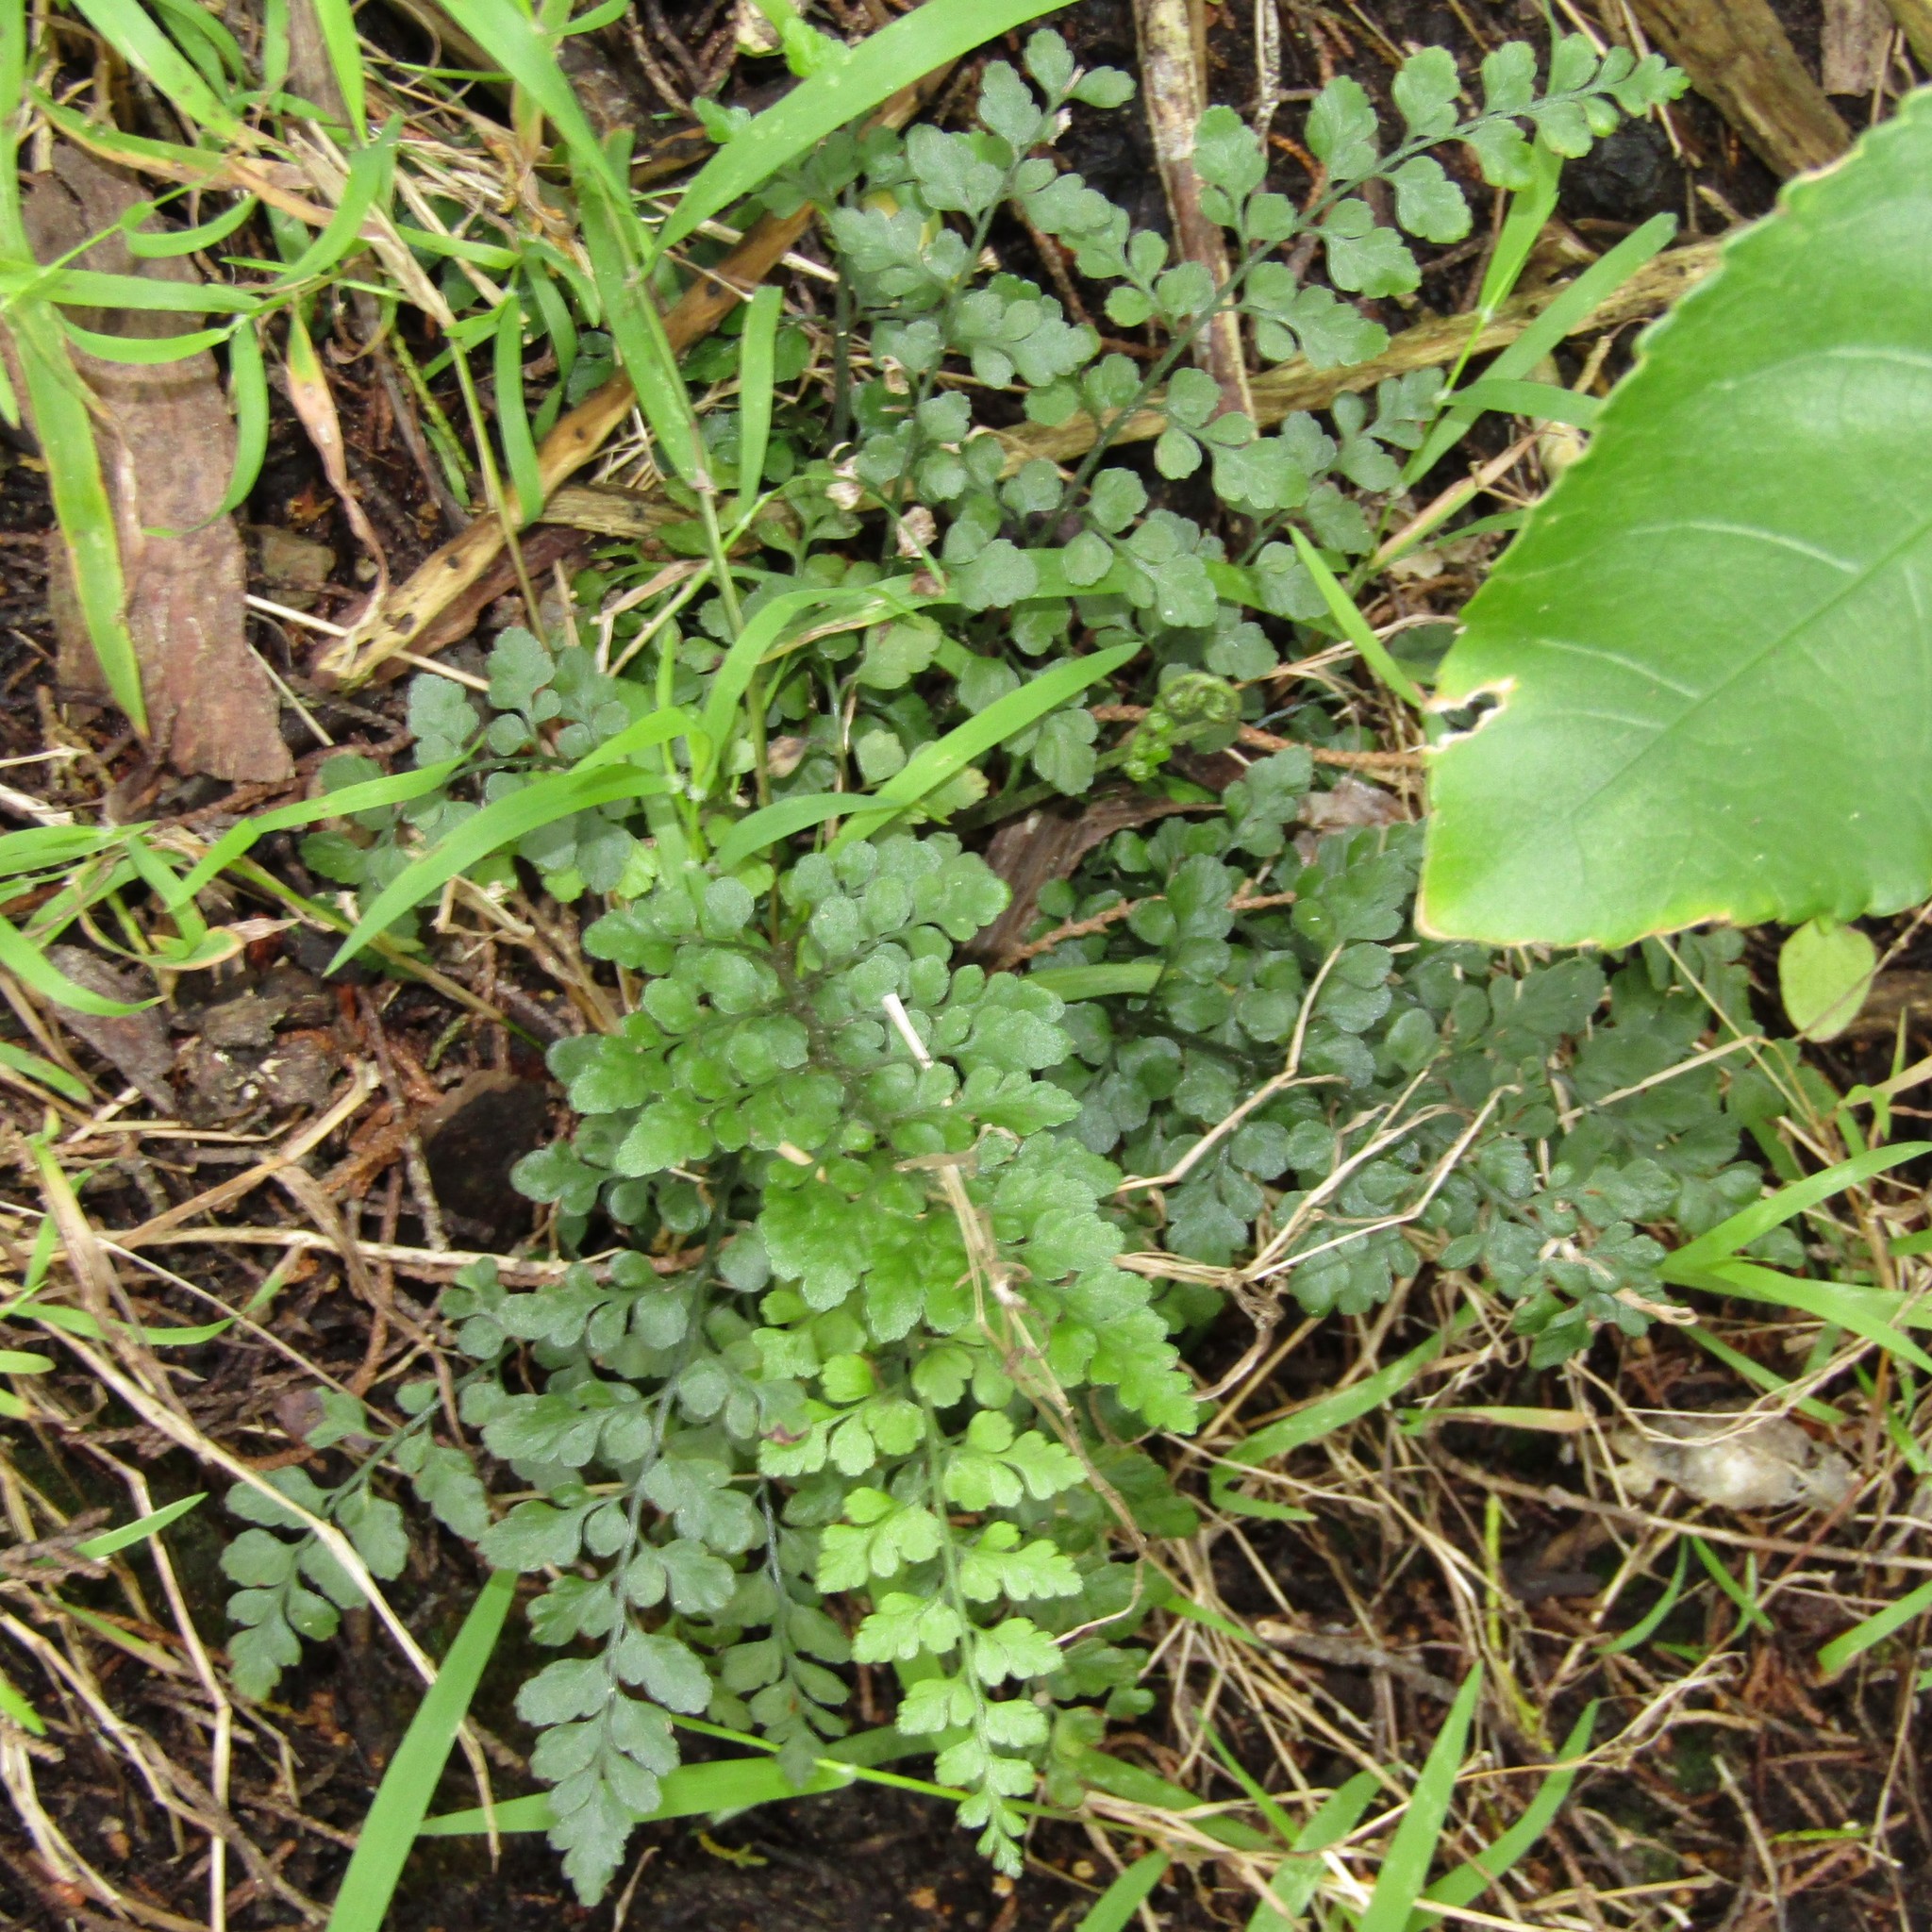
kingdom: Plantae
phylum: Tracheophyta
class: Polypodiopsida
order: Polypodiales
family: Aspleniaceae
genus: Asplenium
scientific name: Asplenium hookerianum
